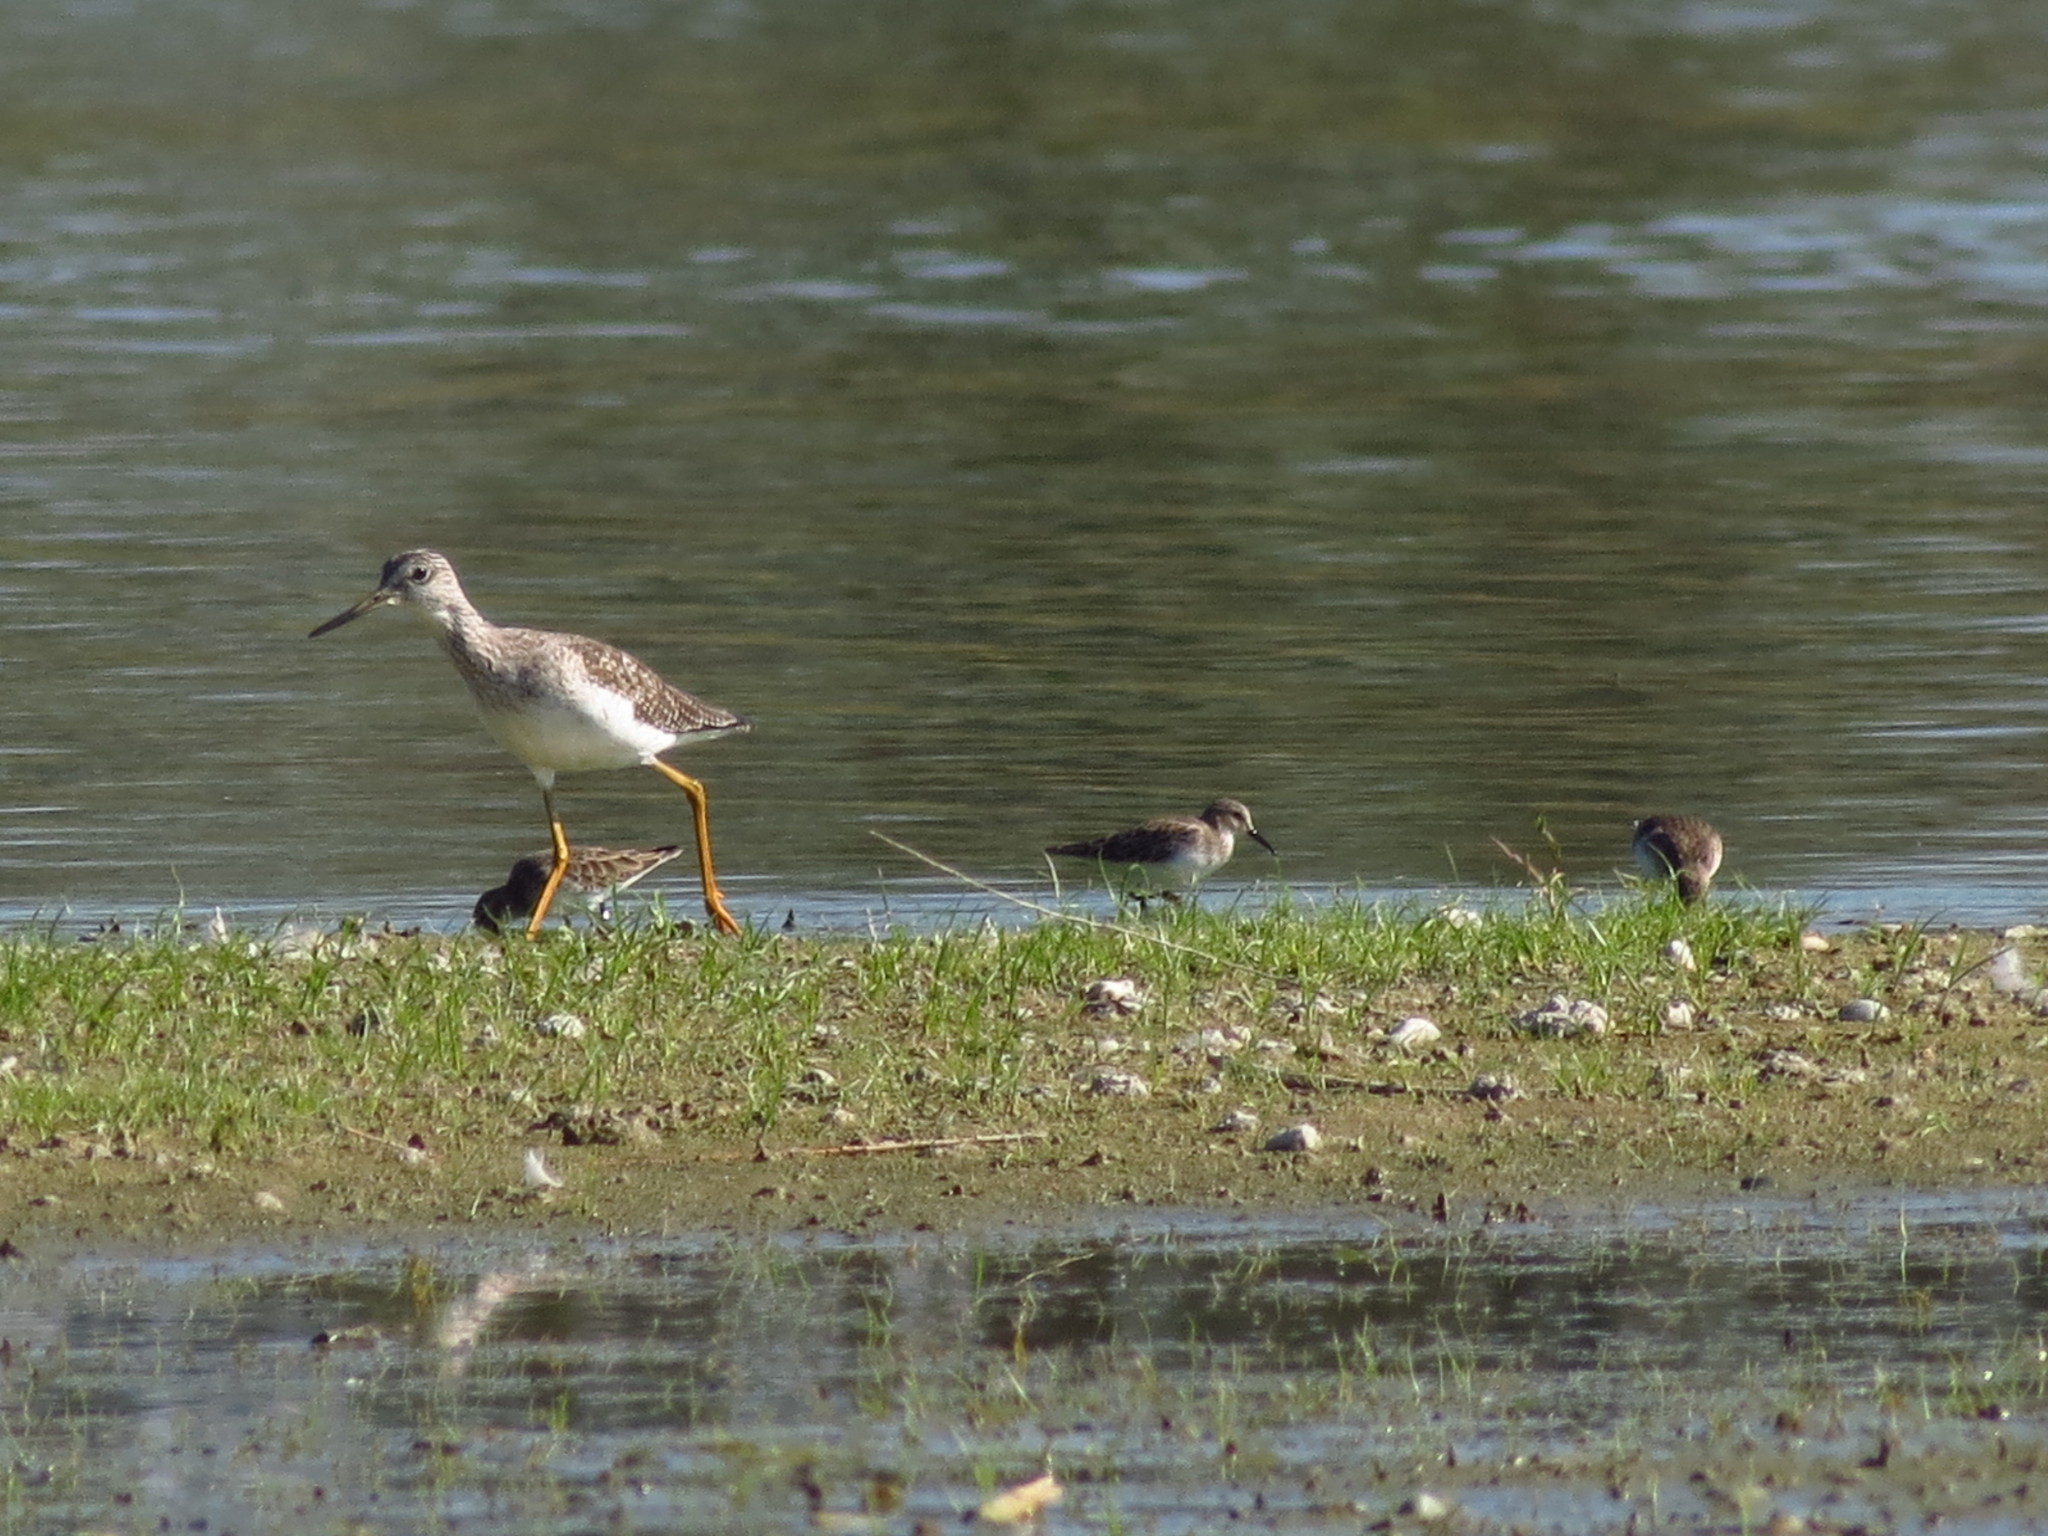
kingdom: Animalia
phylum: Chordata
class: Aves
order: Charadriiformes
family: Scolopacidae
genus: Tringa
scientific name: Tringa melanoleuca
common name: Greater yellowlegs
